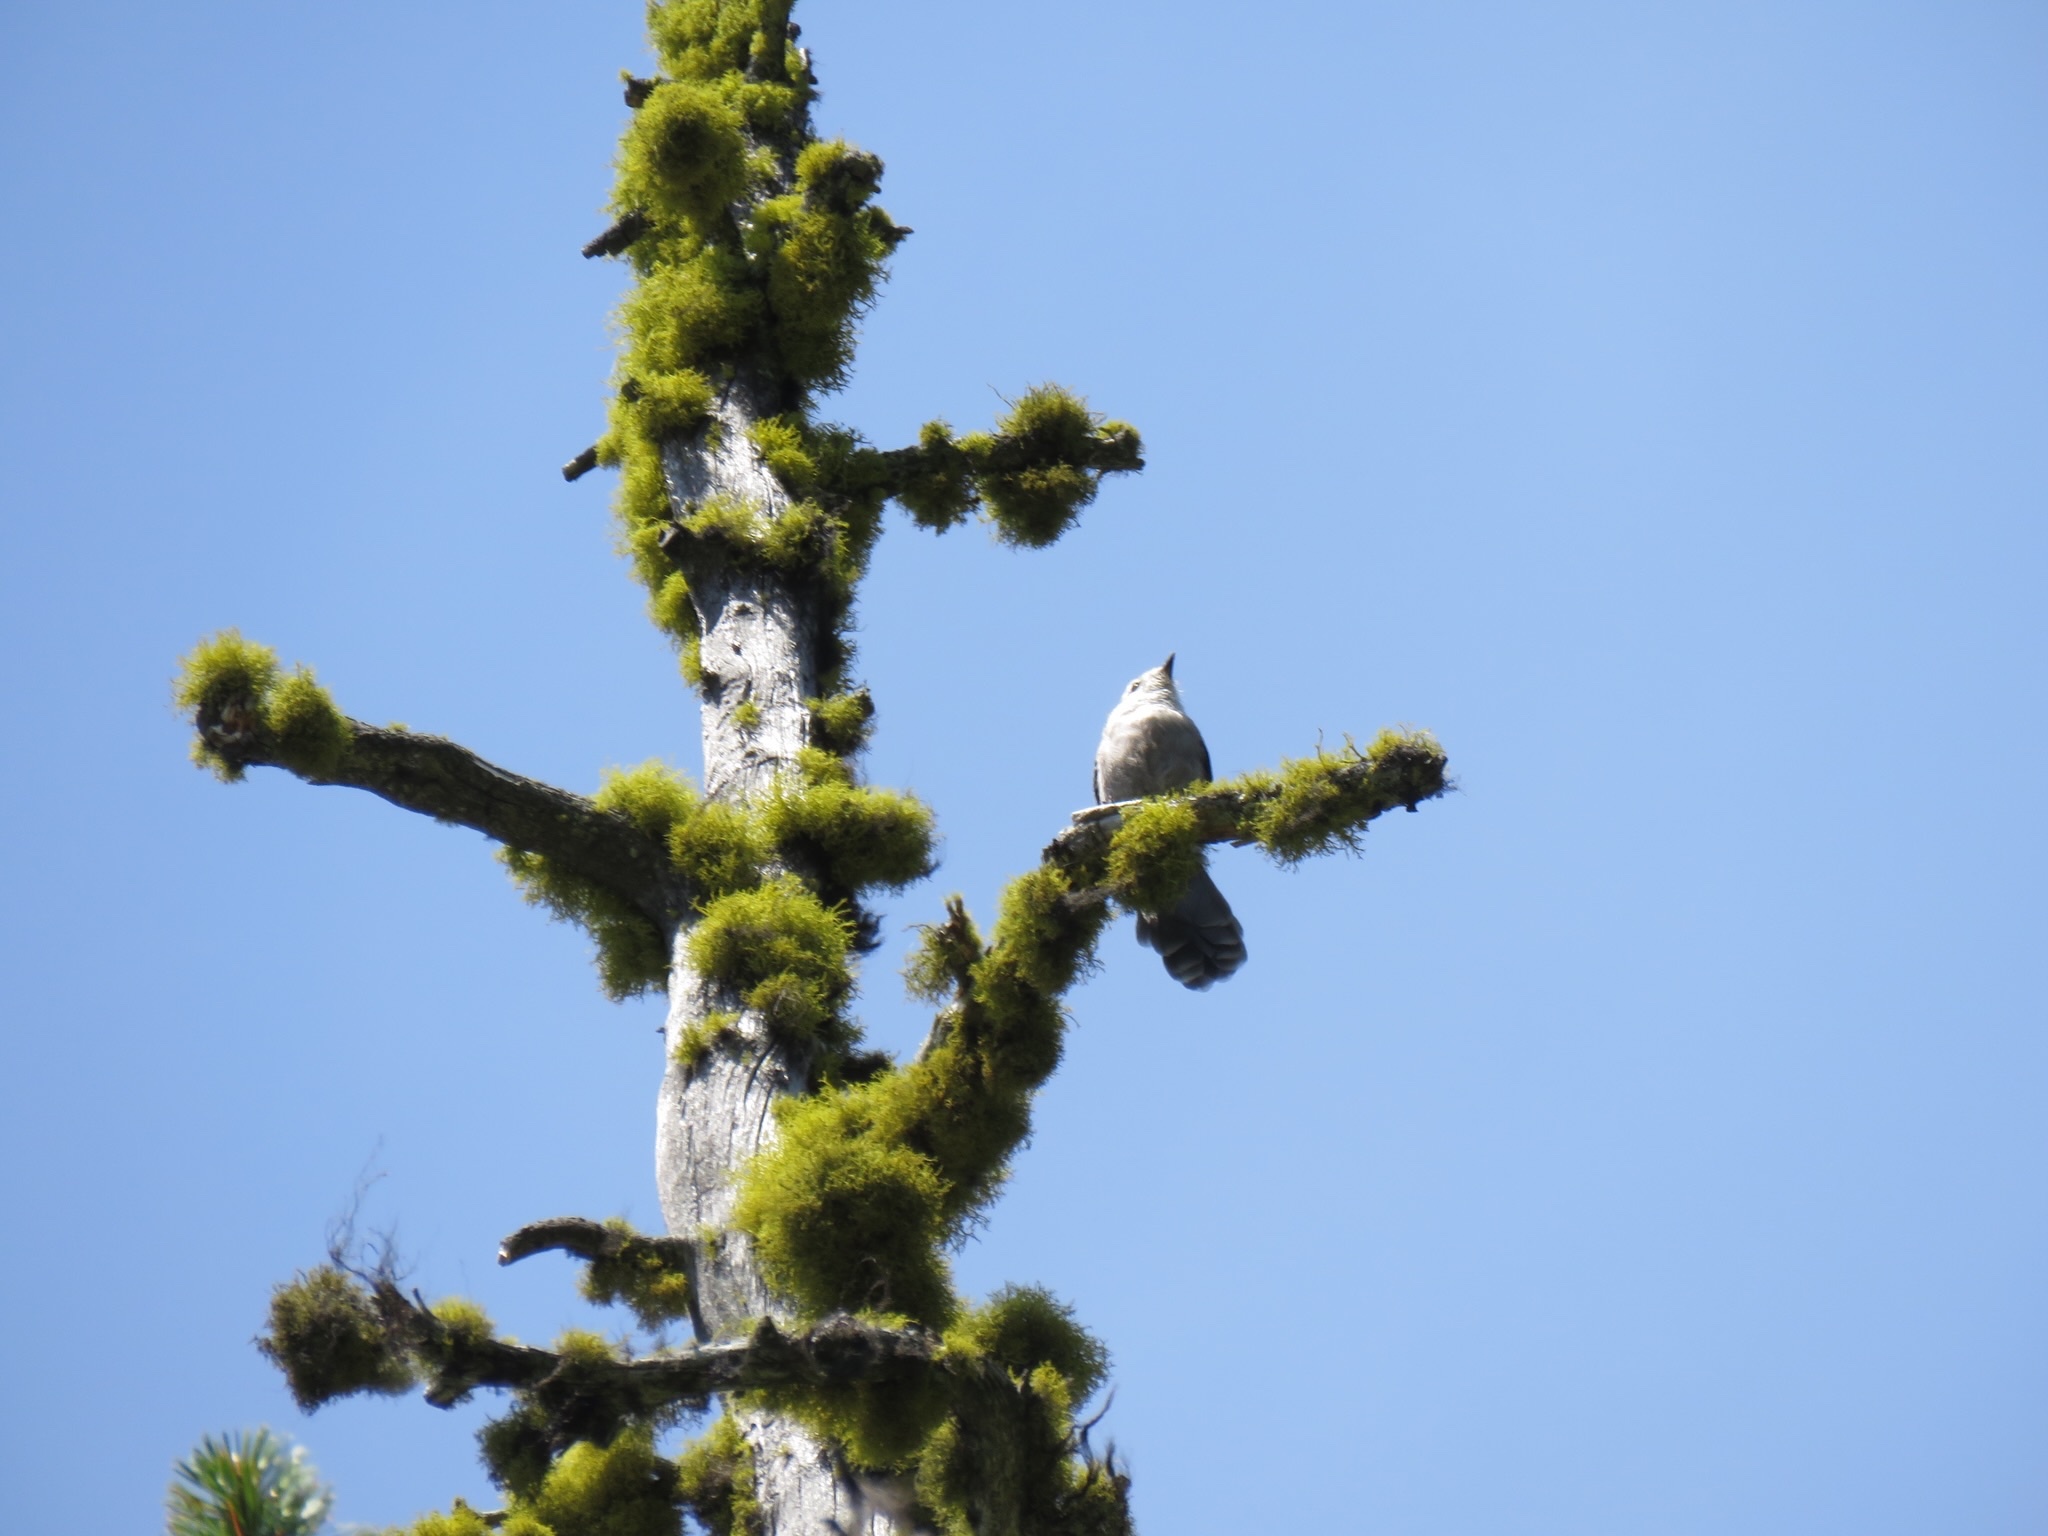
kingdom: Animalia
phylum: Chordata
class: Aves
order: Passeriformes
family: Corvidae
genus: Perisoreus
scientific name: Perisoreus canadensis
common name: Gray jay
